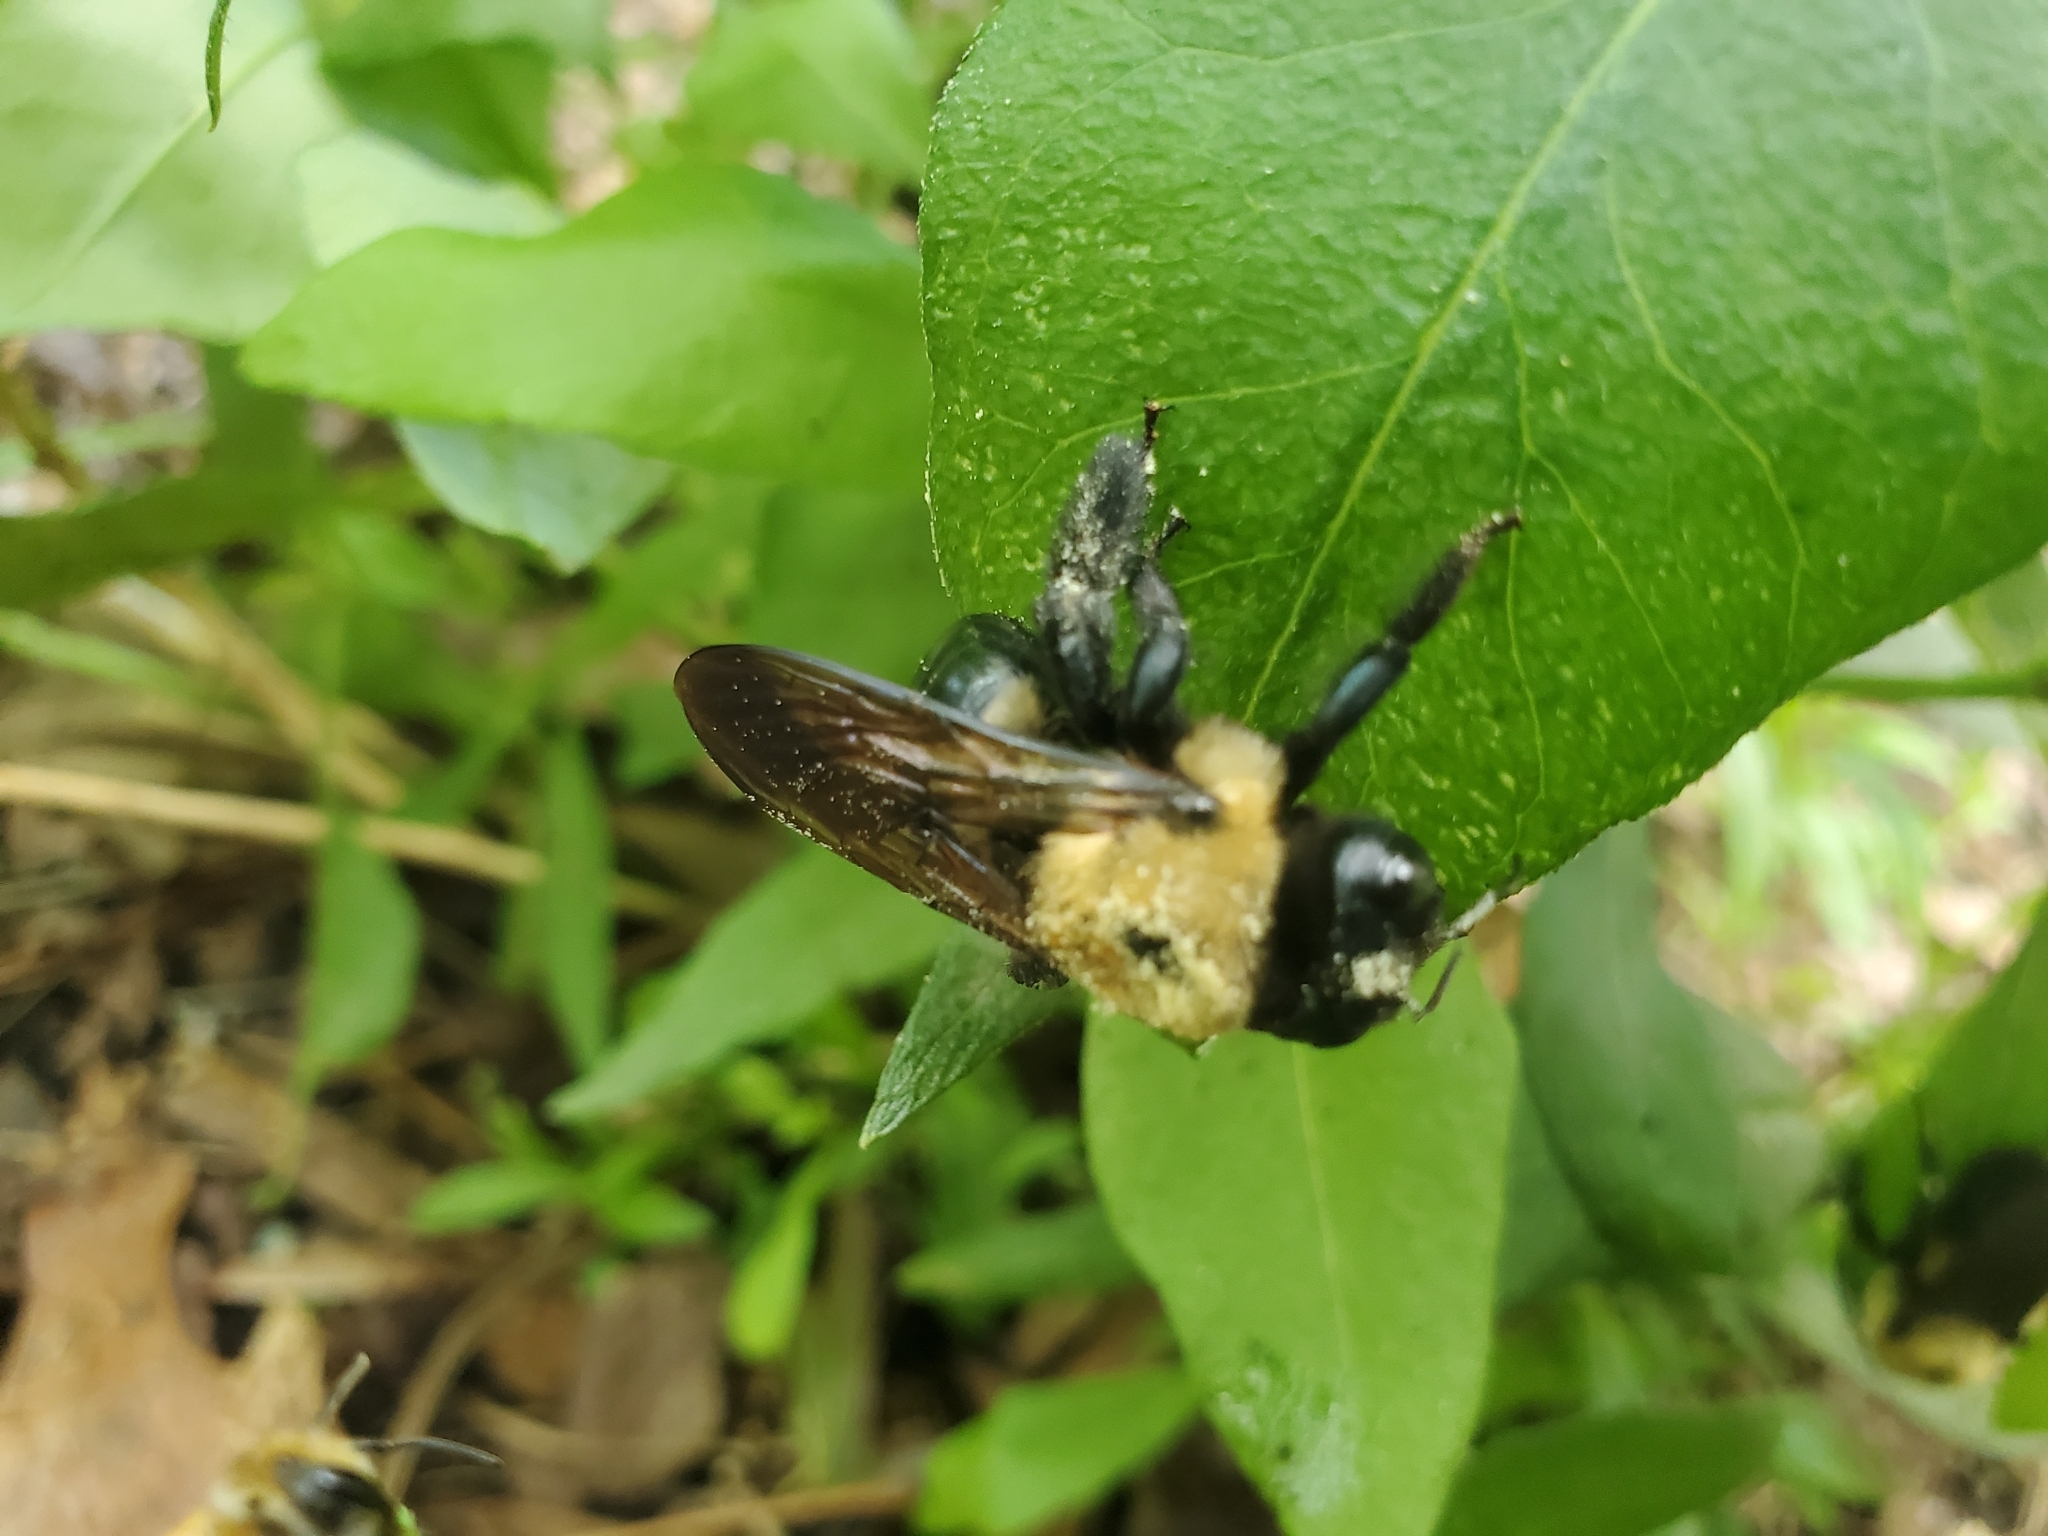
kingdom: Animalia
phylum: Arthropoda
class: Insecta
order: Hymenoptera
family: Apidae
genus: Xylocopa
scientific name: Xylocopa virginica
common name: Carpenter bee
